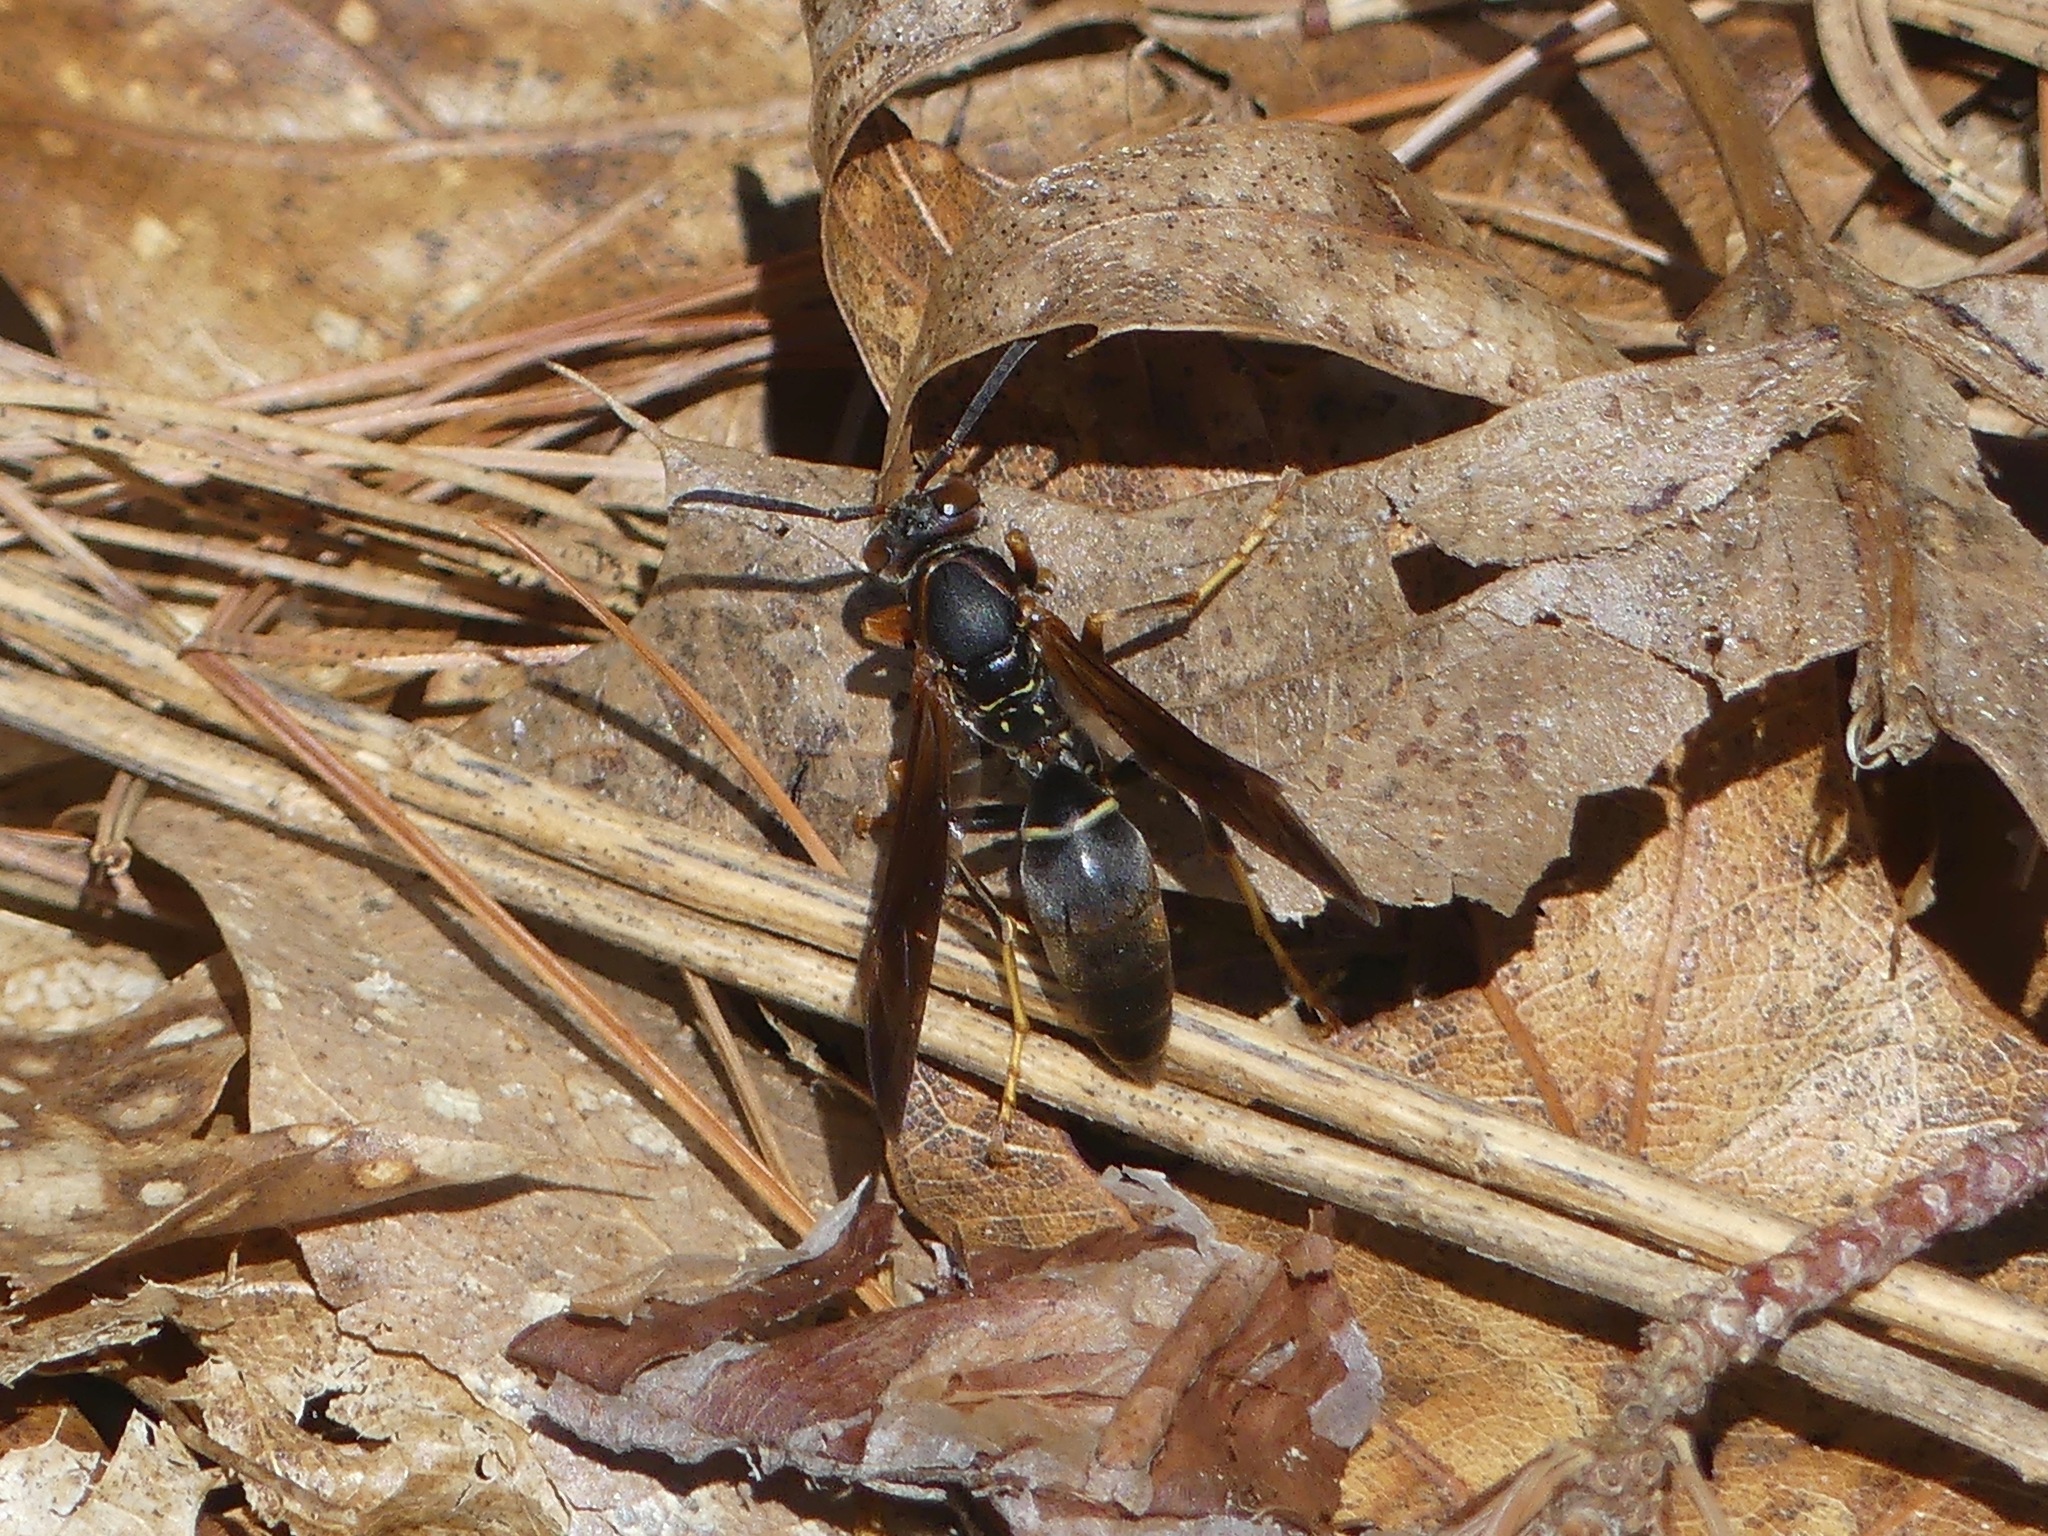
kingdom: Animalia
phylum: Arthropoda
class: Insecta
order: Hymenoptera
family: Eumenidae
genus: Polistes
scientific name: Polistes fuscatus
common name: Dark paper wasp
